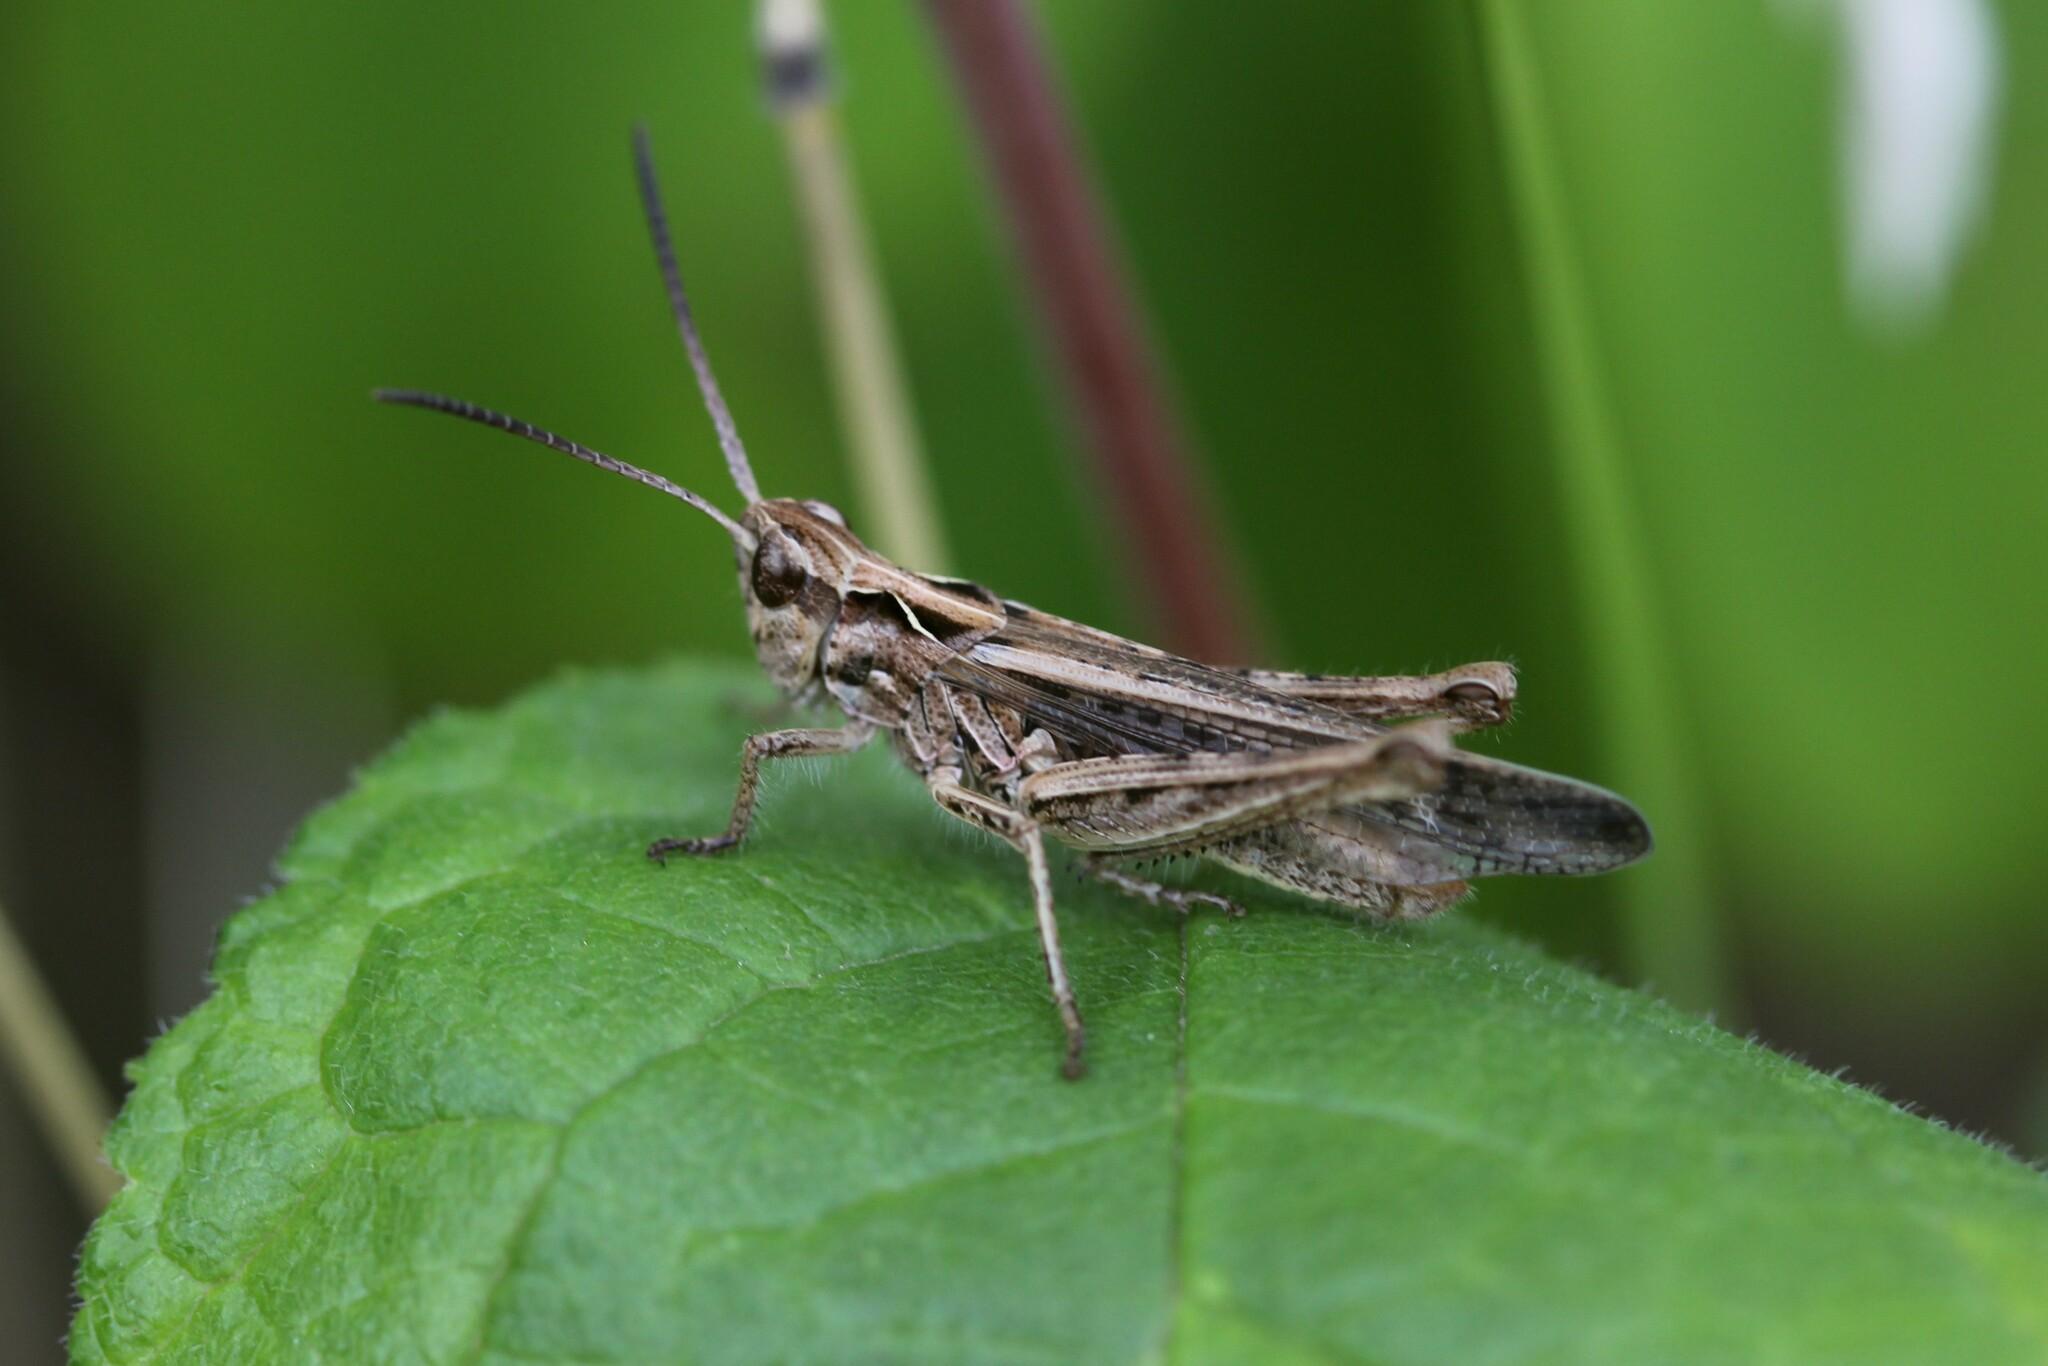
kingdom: Animalia
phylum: Arthropoda
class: Insecta
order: Orthoptera
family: Acrididae
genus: Glyptobothrus
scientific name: Glyptobothrus
